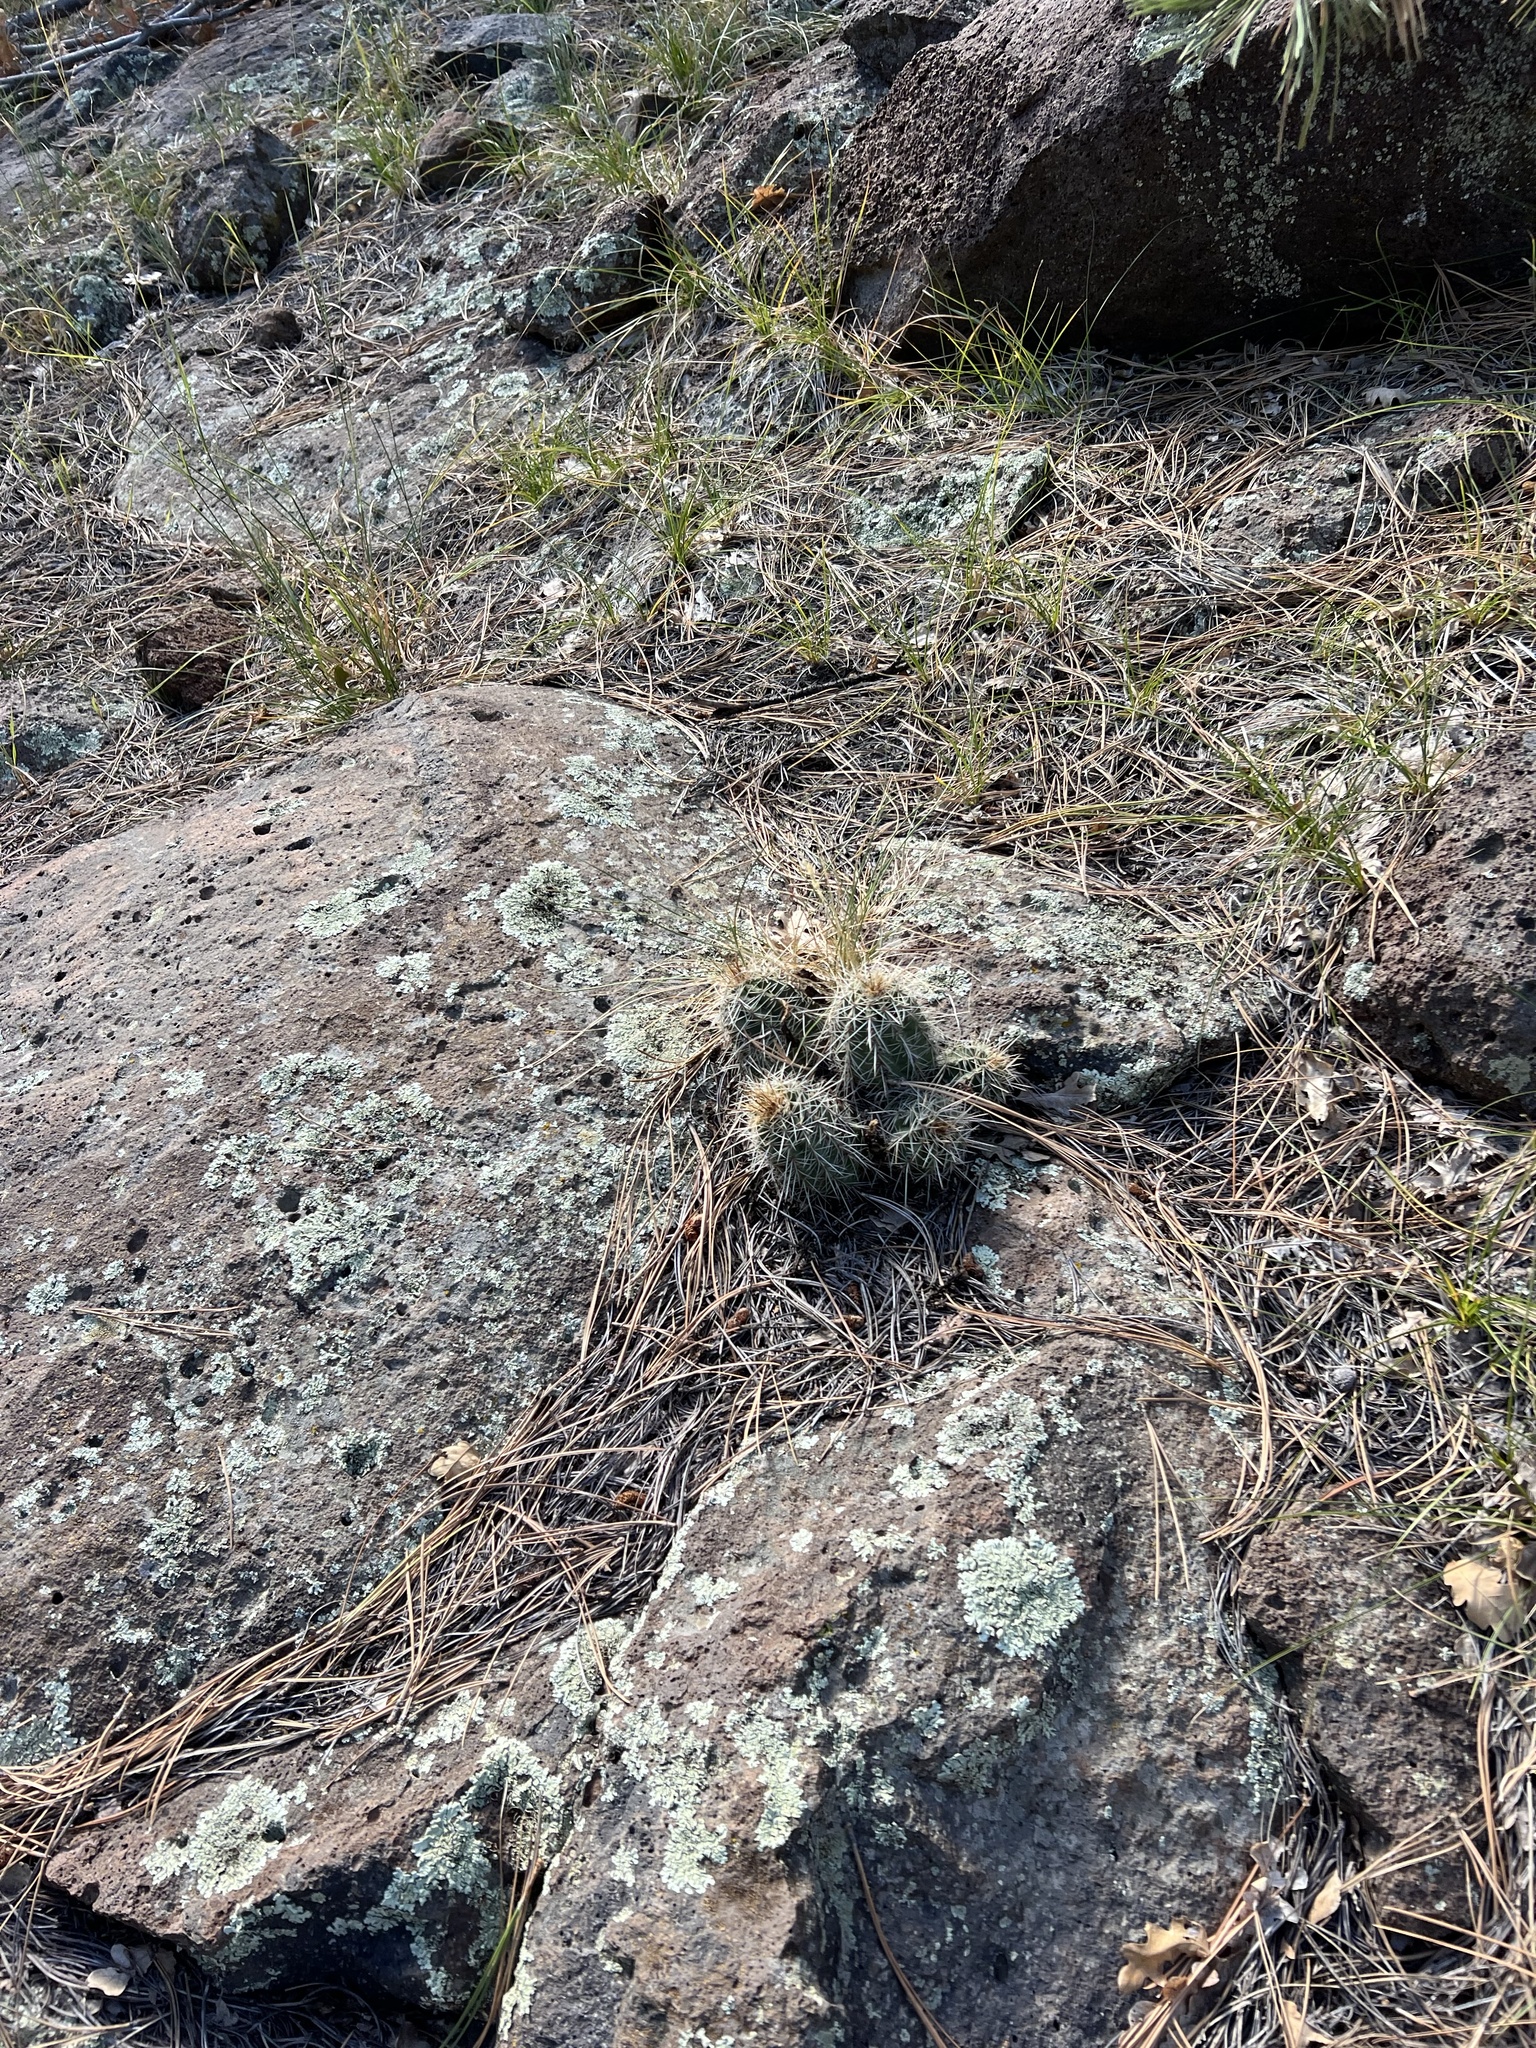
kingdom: Plantae
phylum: Tracheophyta
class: Magnoliopsida
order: Caryophyllales
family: Cactaceae
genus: Echinocereus
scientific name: Echinocereus bakeri
